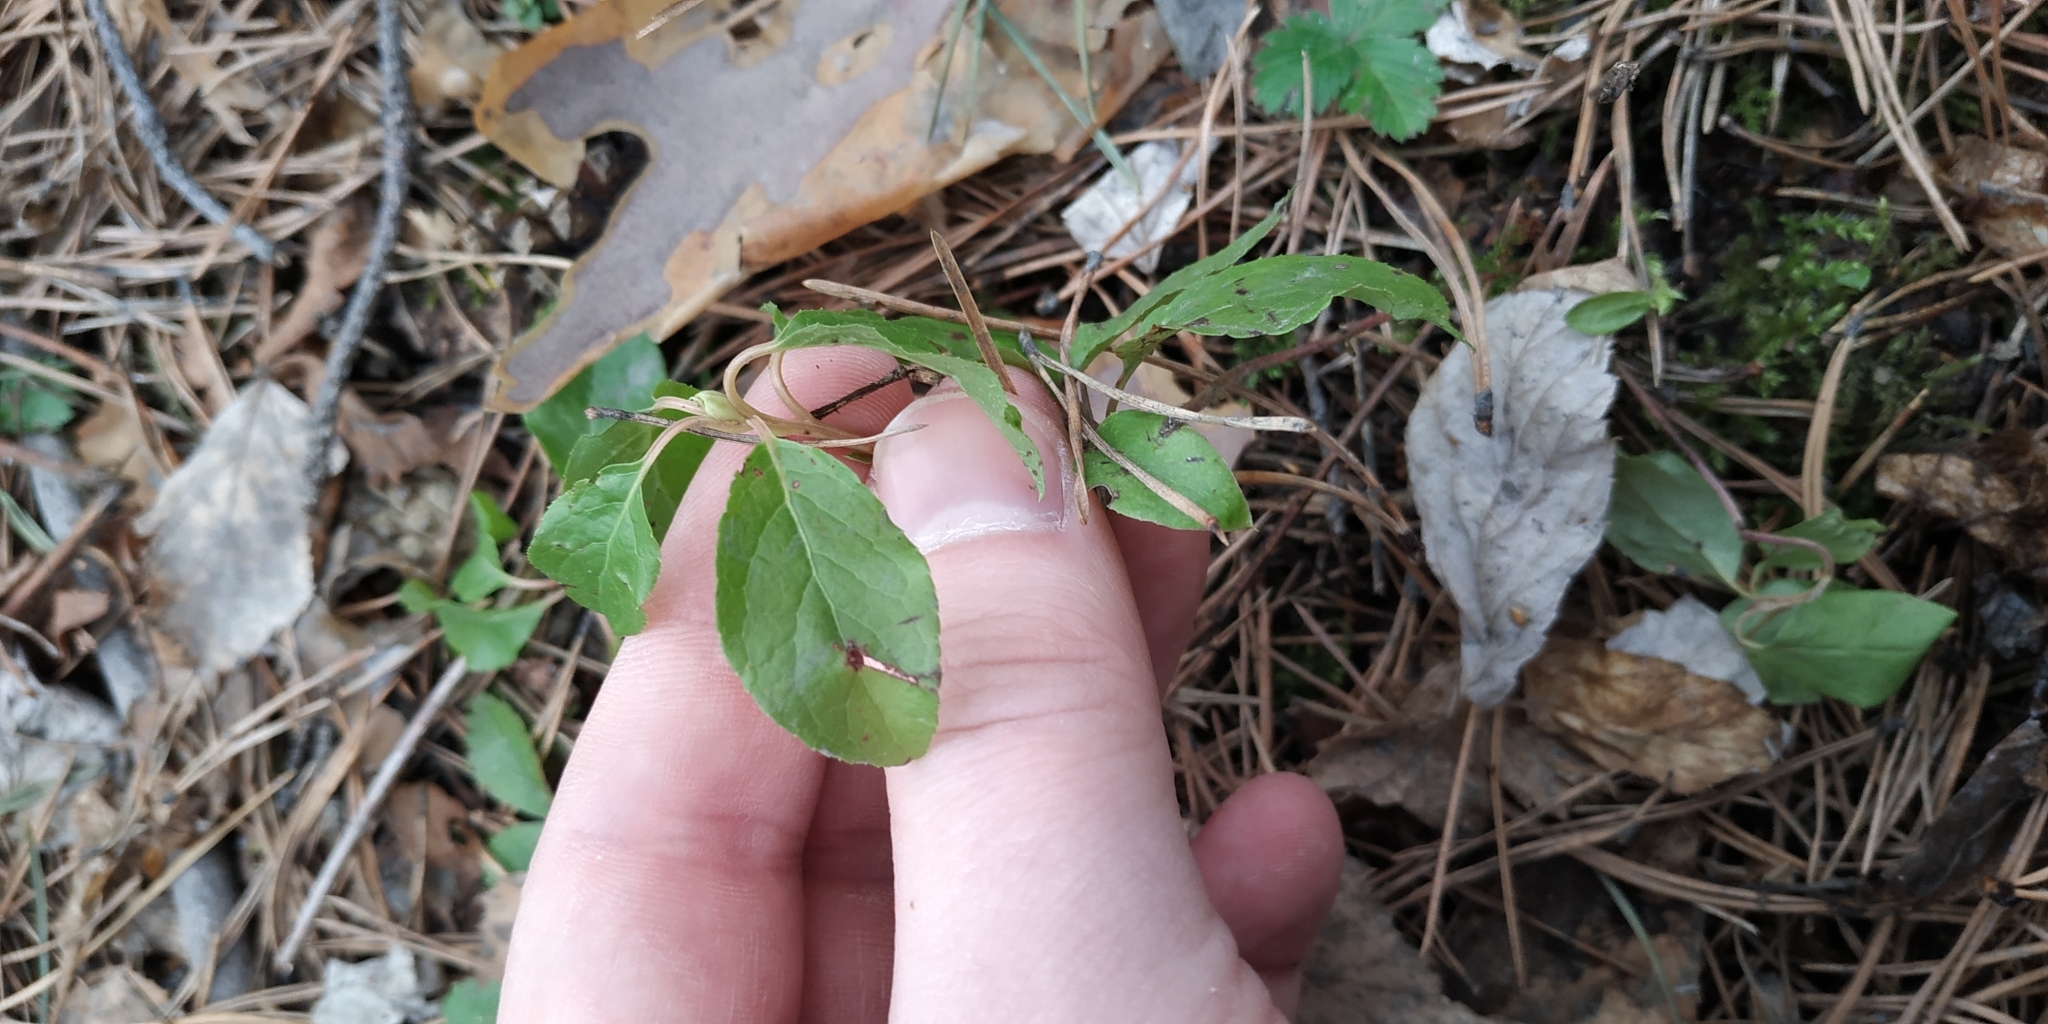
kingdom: Plantae
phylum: Tracheophyta
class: Magnoliopsida
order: Ericales
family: Ericaceae
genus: Orthilia
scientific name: Orthilia secunda
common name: One-sided orthilia
